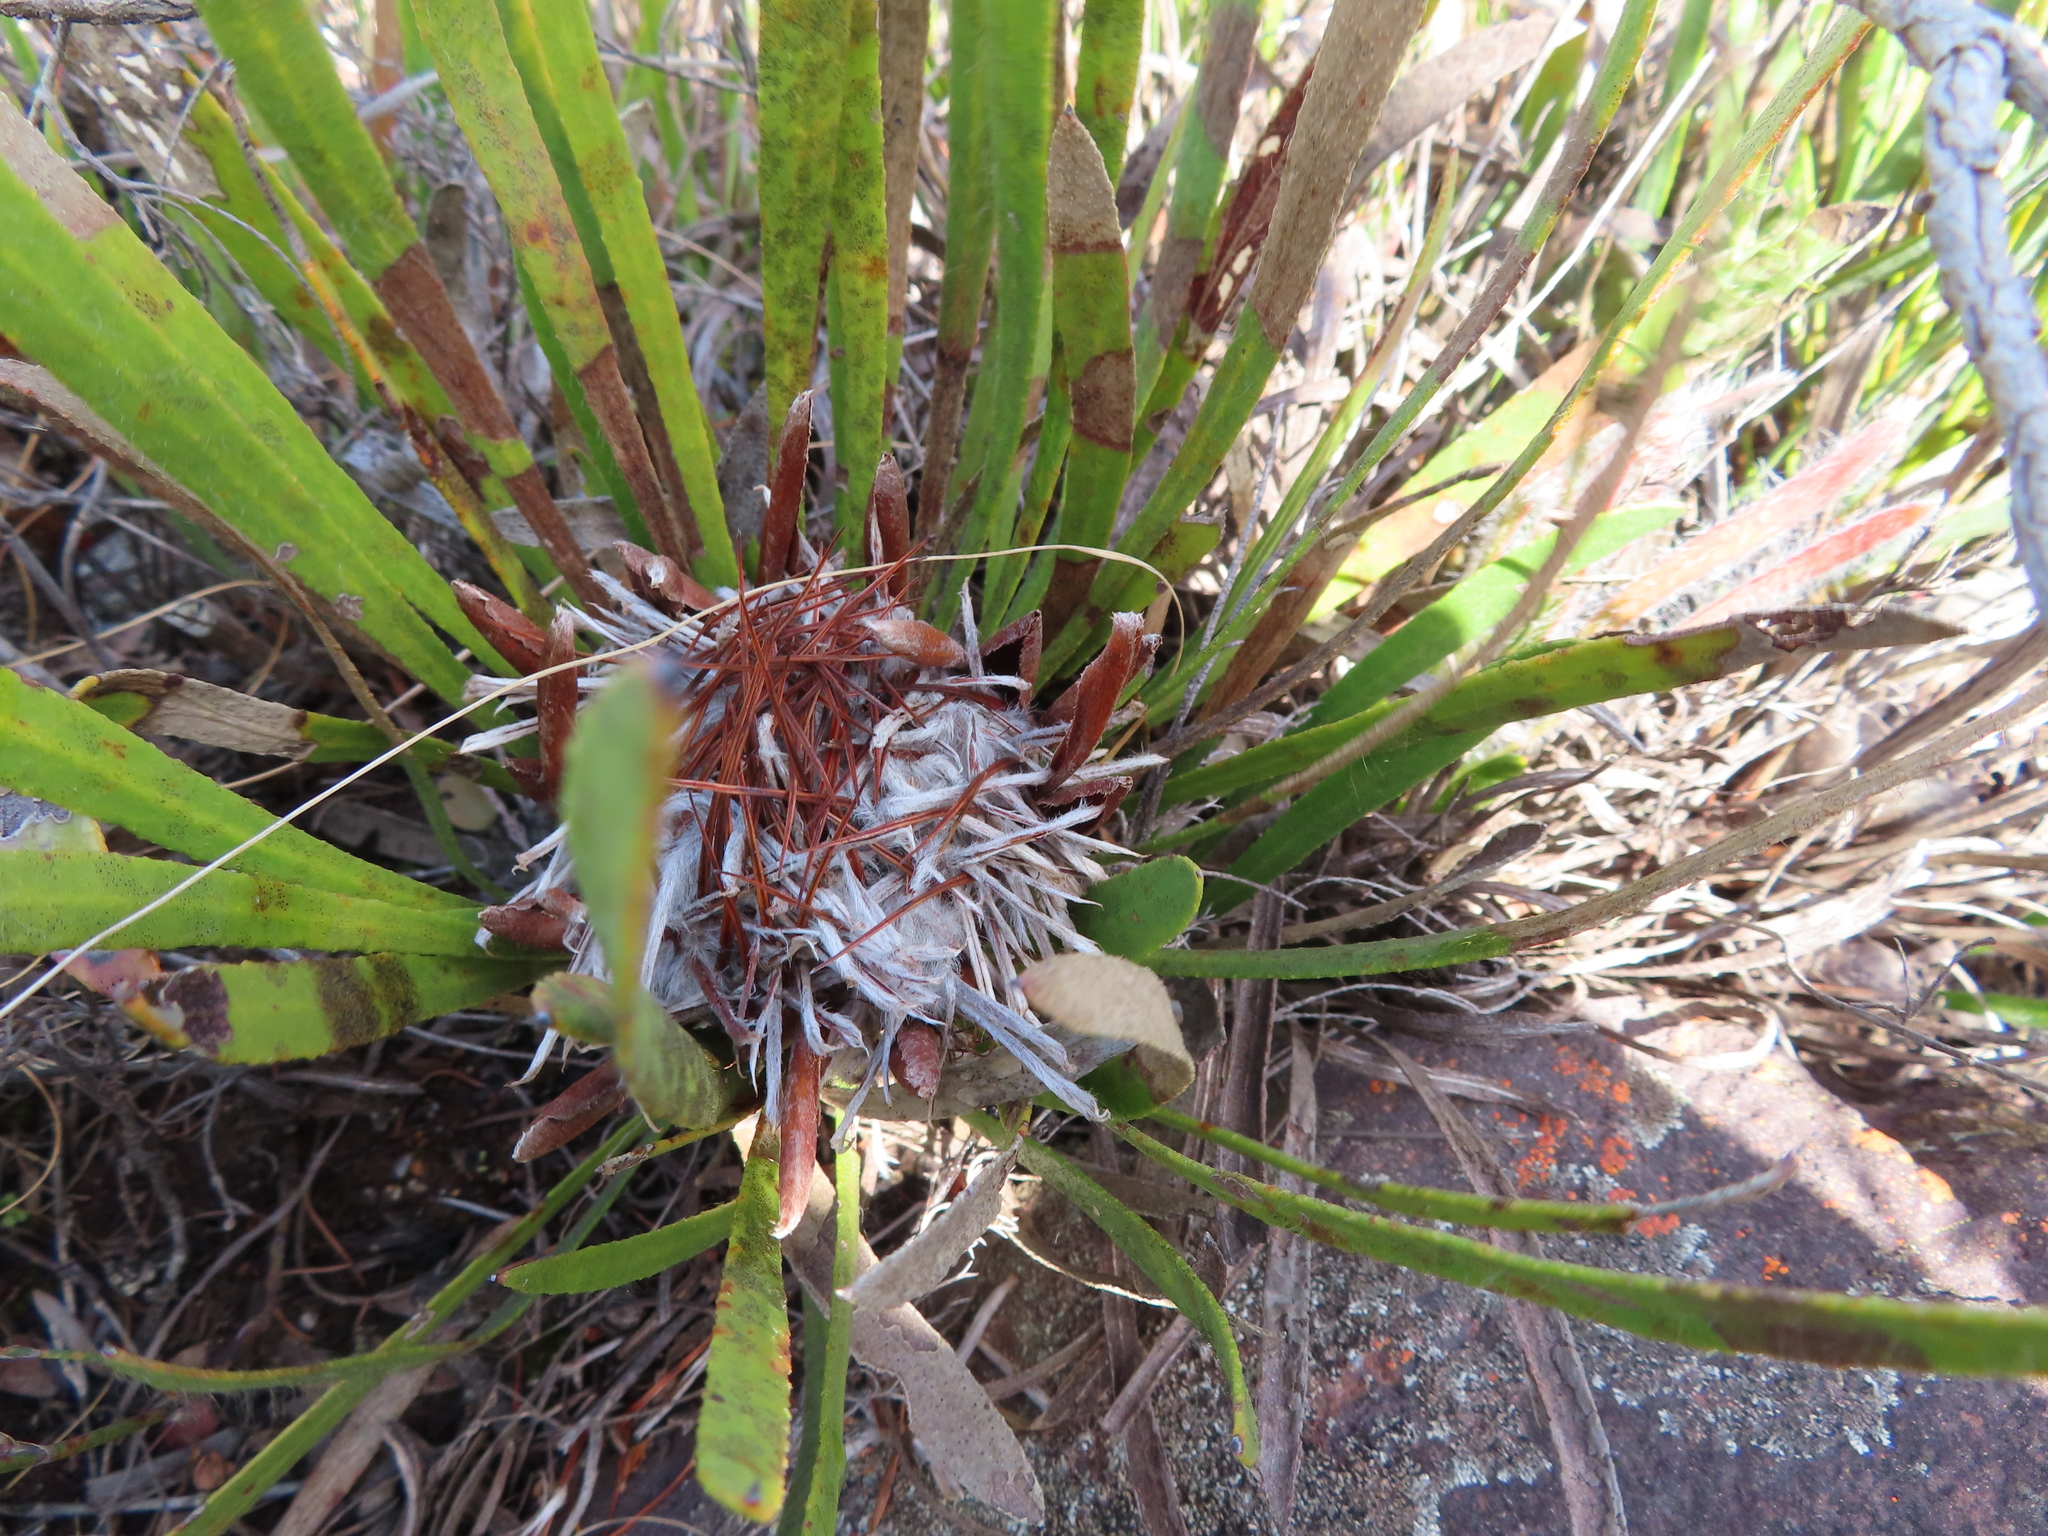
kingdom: Plantae
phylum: Tracheophyta
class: Magnoliopsida
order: Proteales
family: Proteaceae
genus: Protea
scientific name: Protea aspera
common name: Rough-leaf sugarbush
